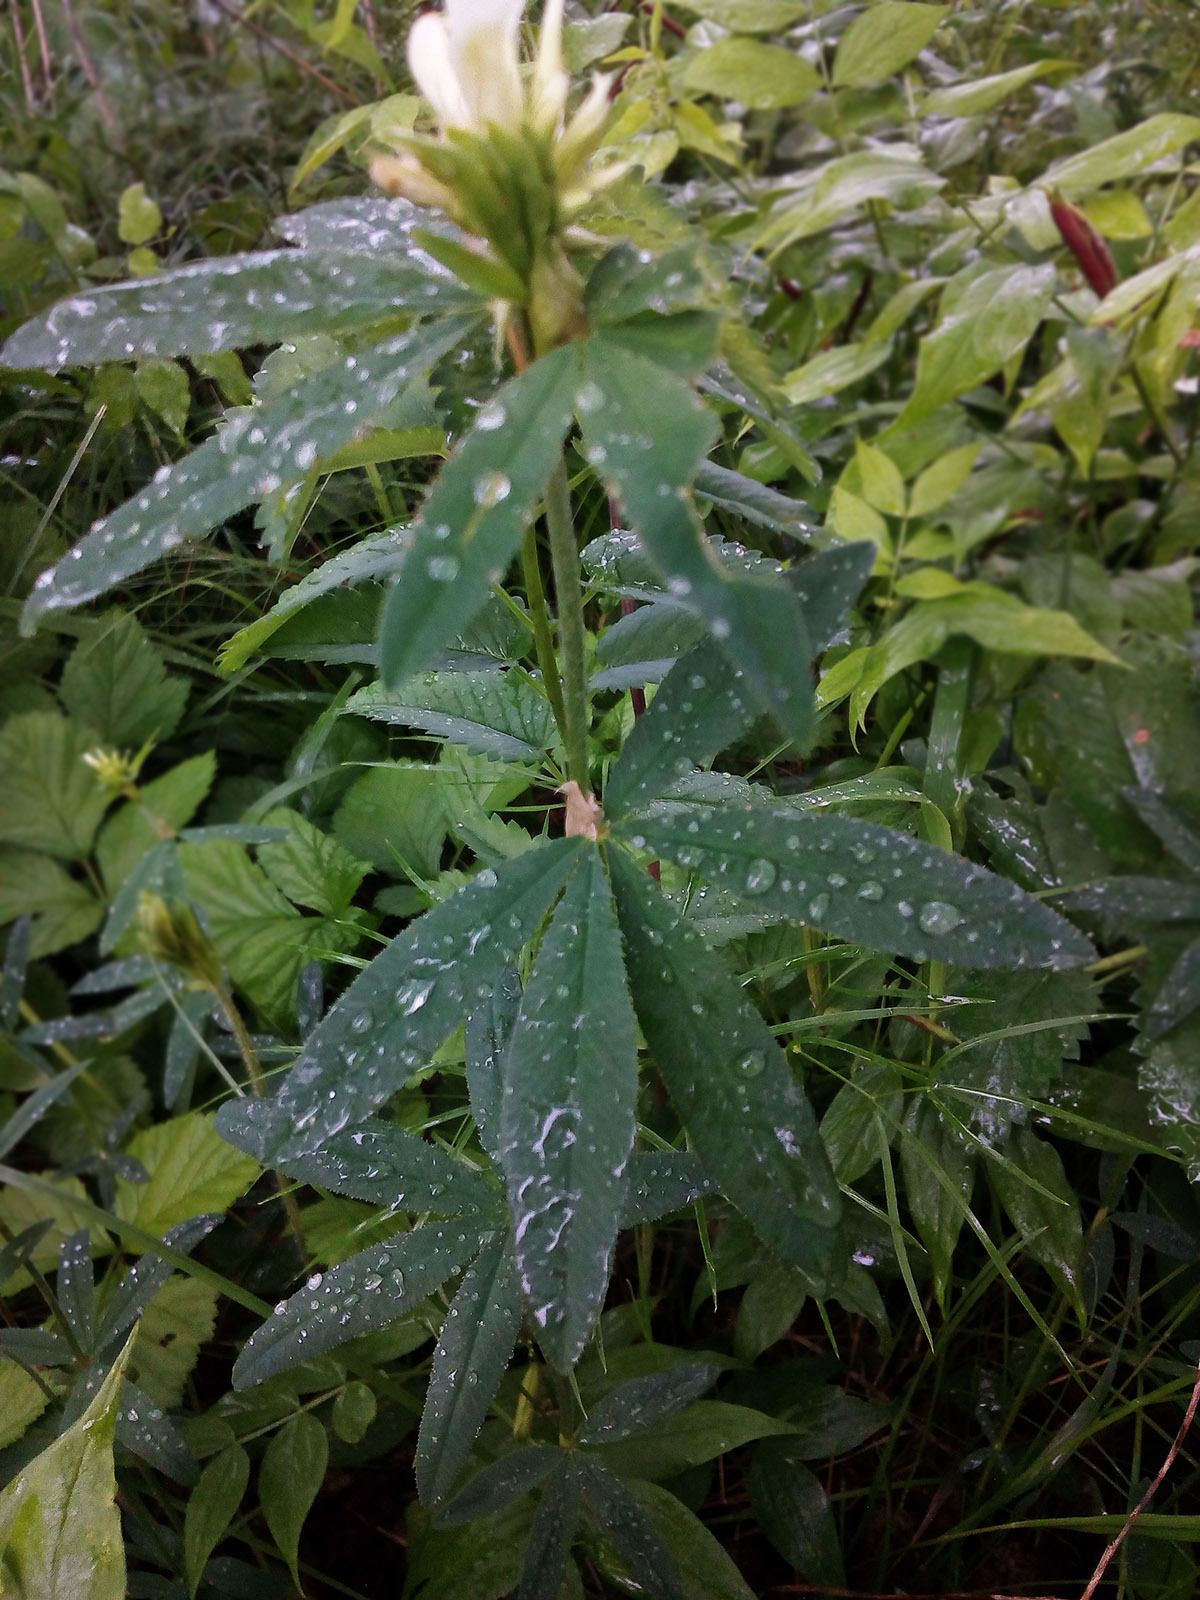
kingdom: Plantae
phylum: Tracheophyta
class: Magnoliopsida
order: Fabales
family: Fabaceae
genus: Trifolium
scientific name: Trifolium lupinaster
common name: Lupine clover
